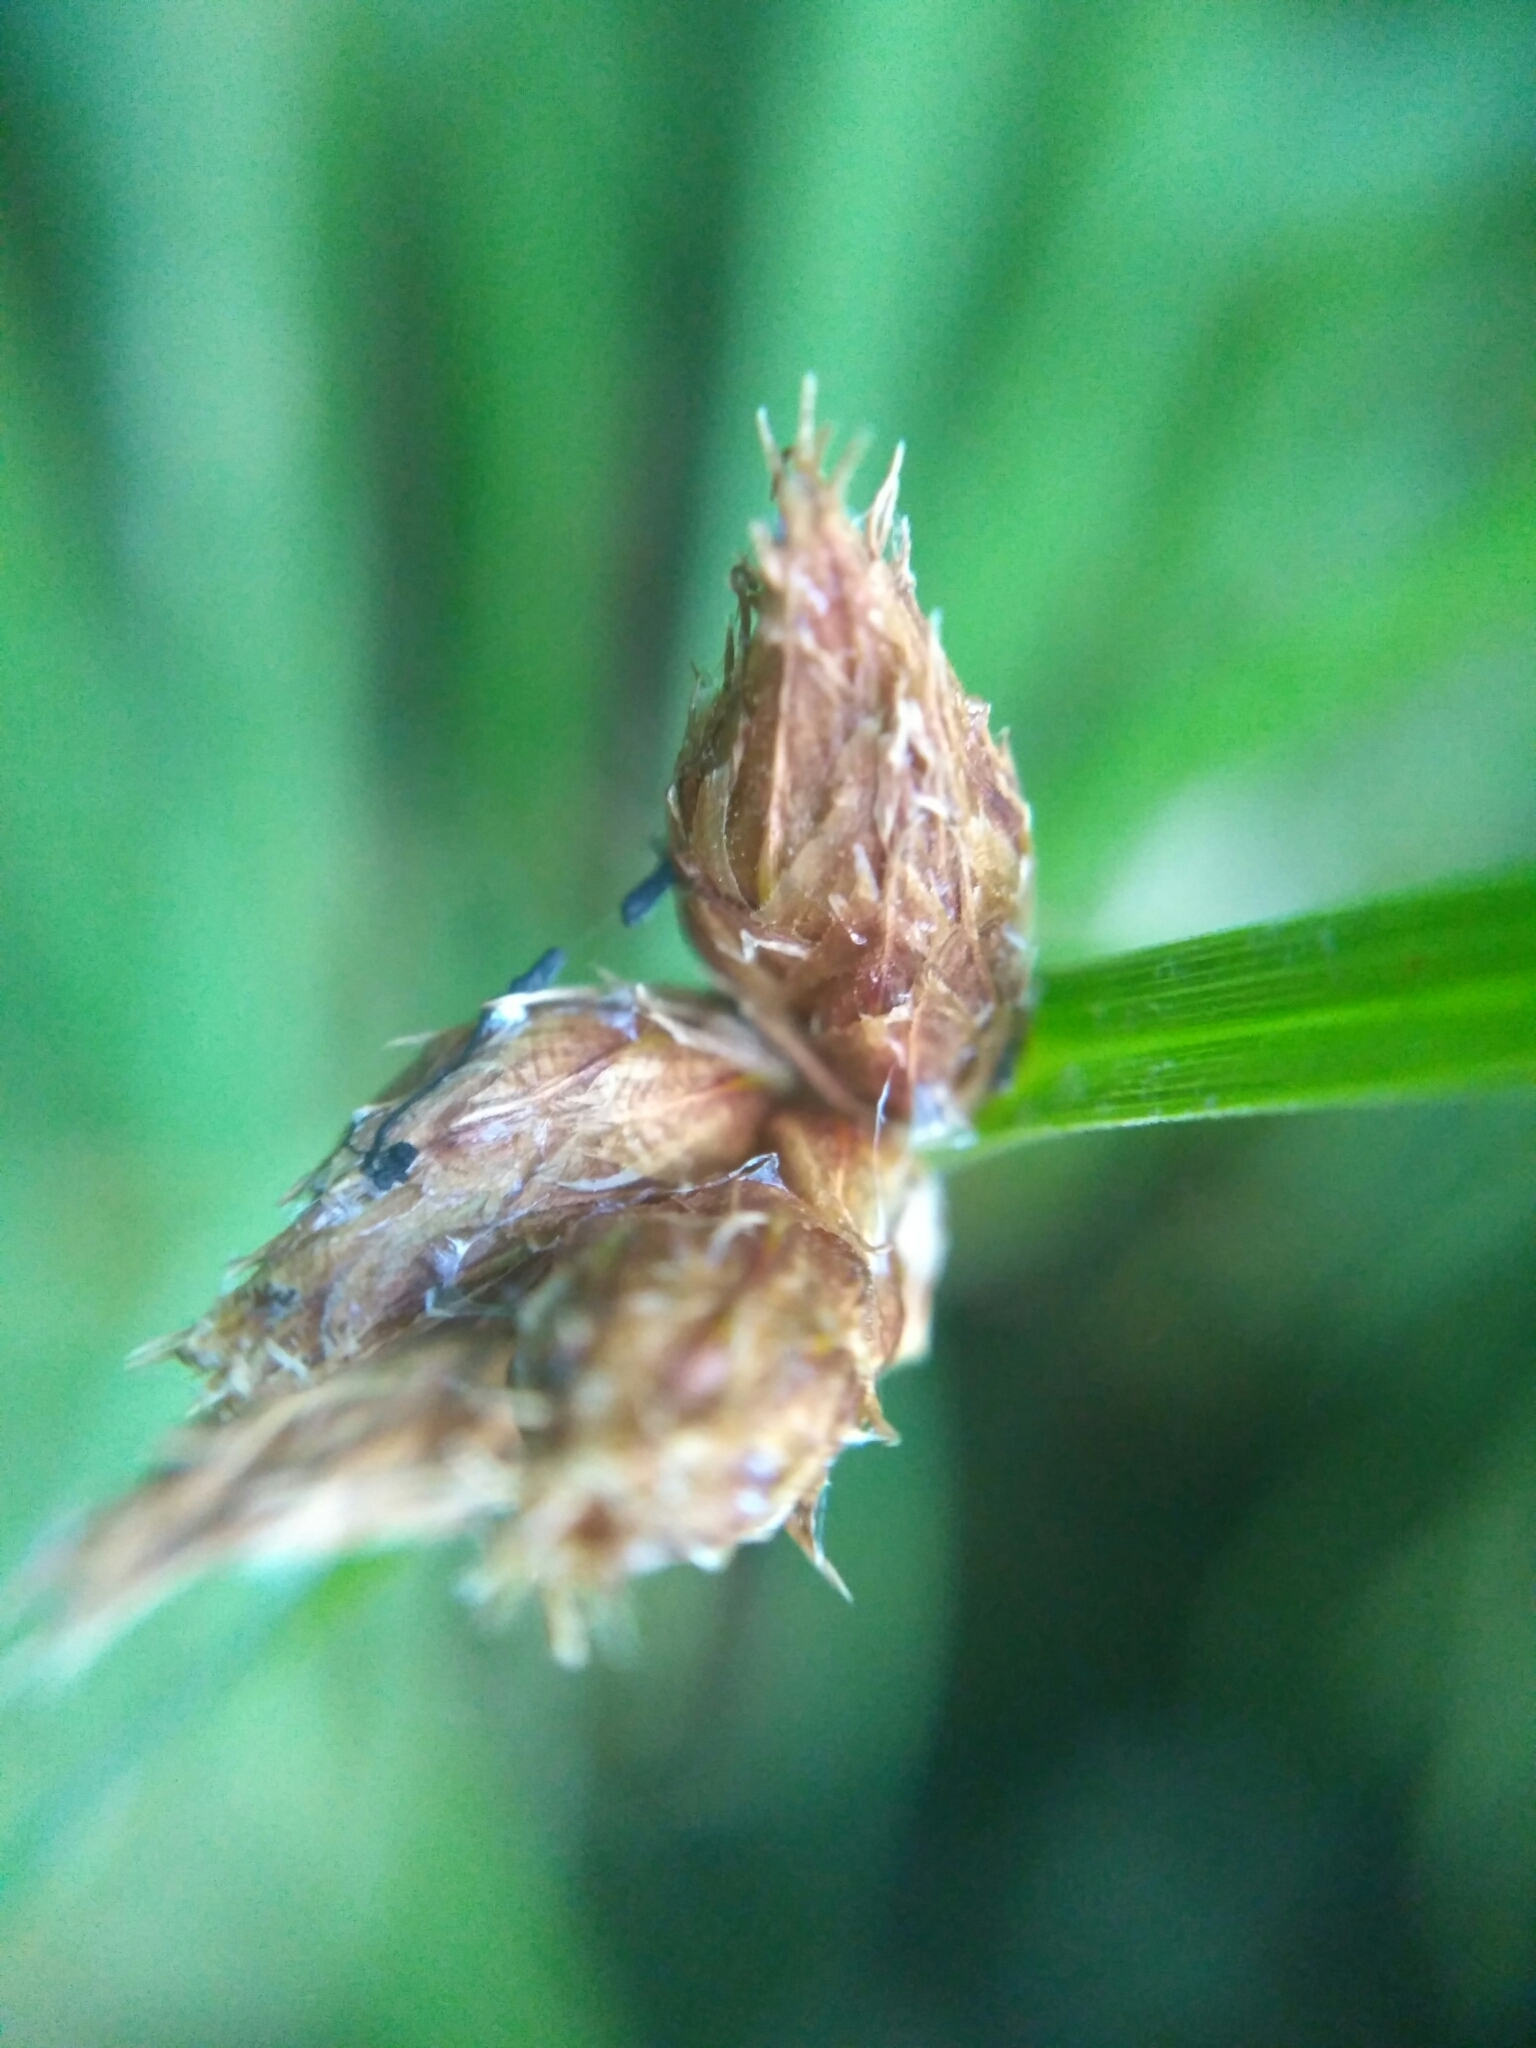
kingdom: Plantae
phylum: Tracheophyta
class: Liliopsida
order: Poales
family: Cyperaceae
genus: Bolboschoenus
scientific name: Bolboschoenus maritimus
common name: Sea club-rush
